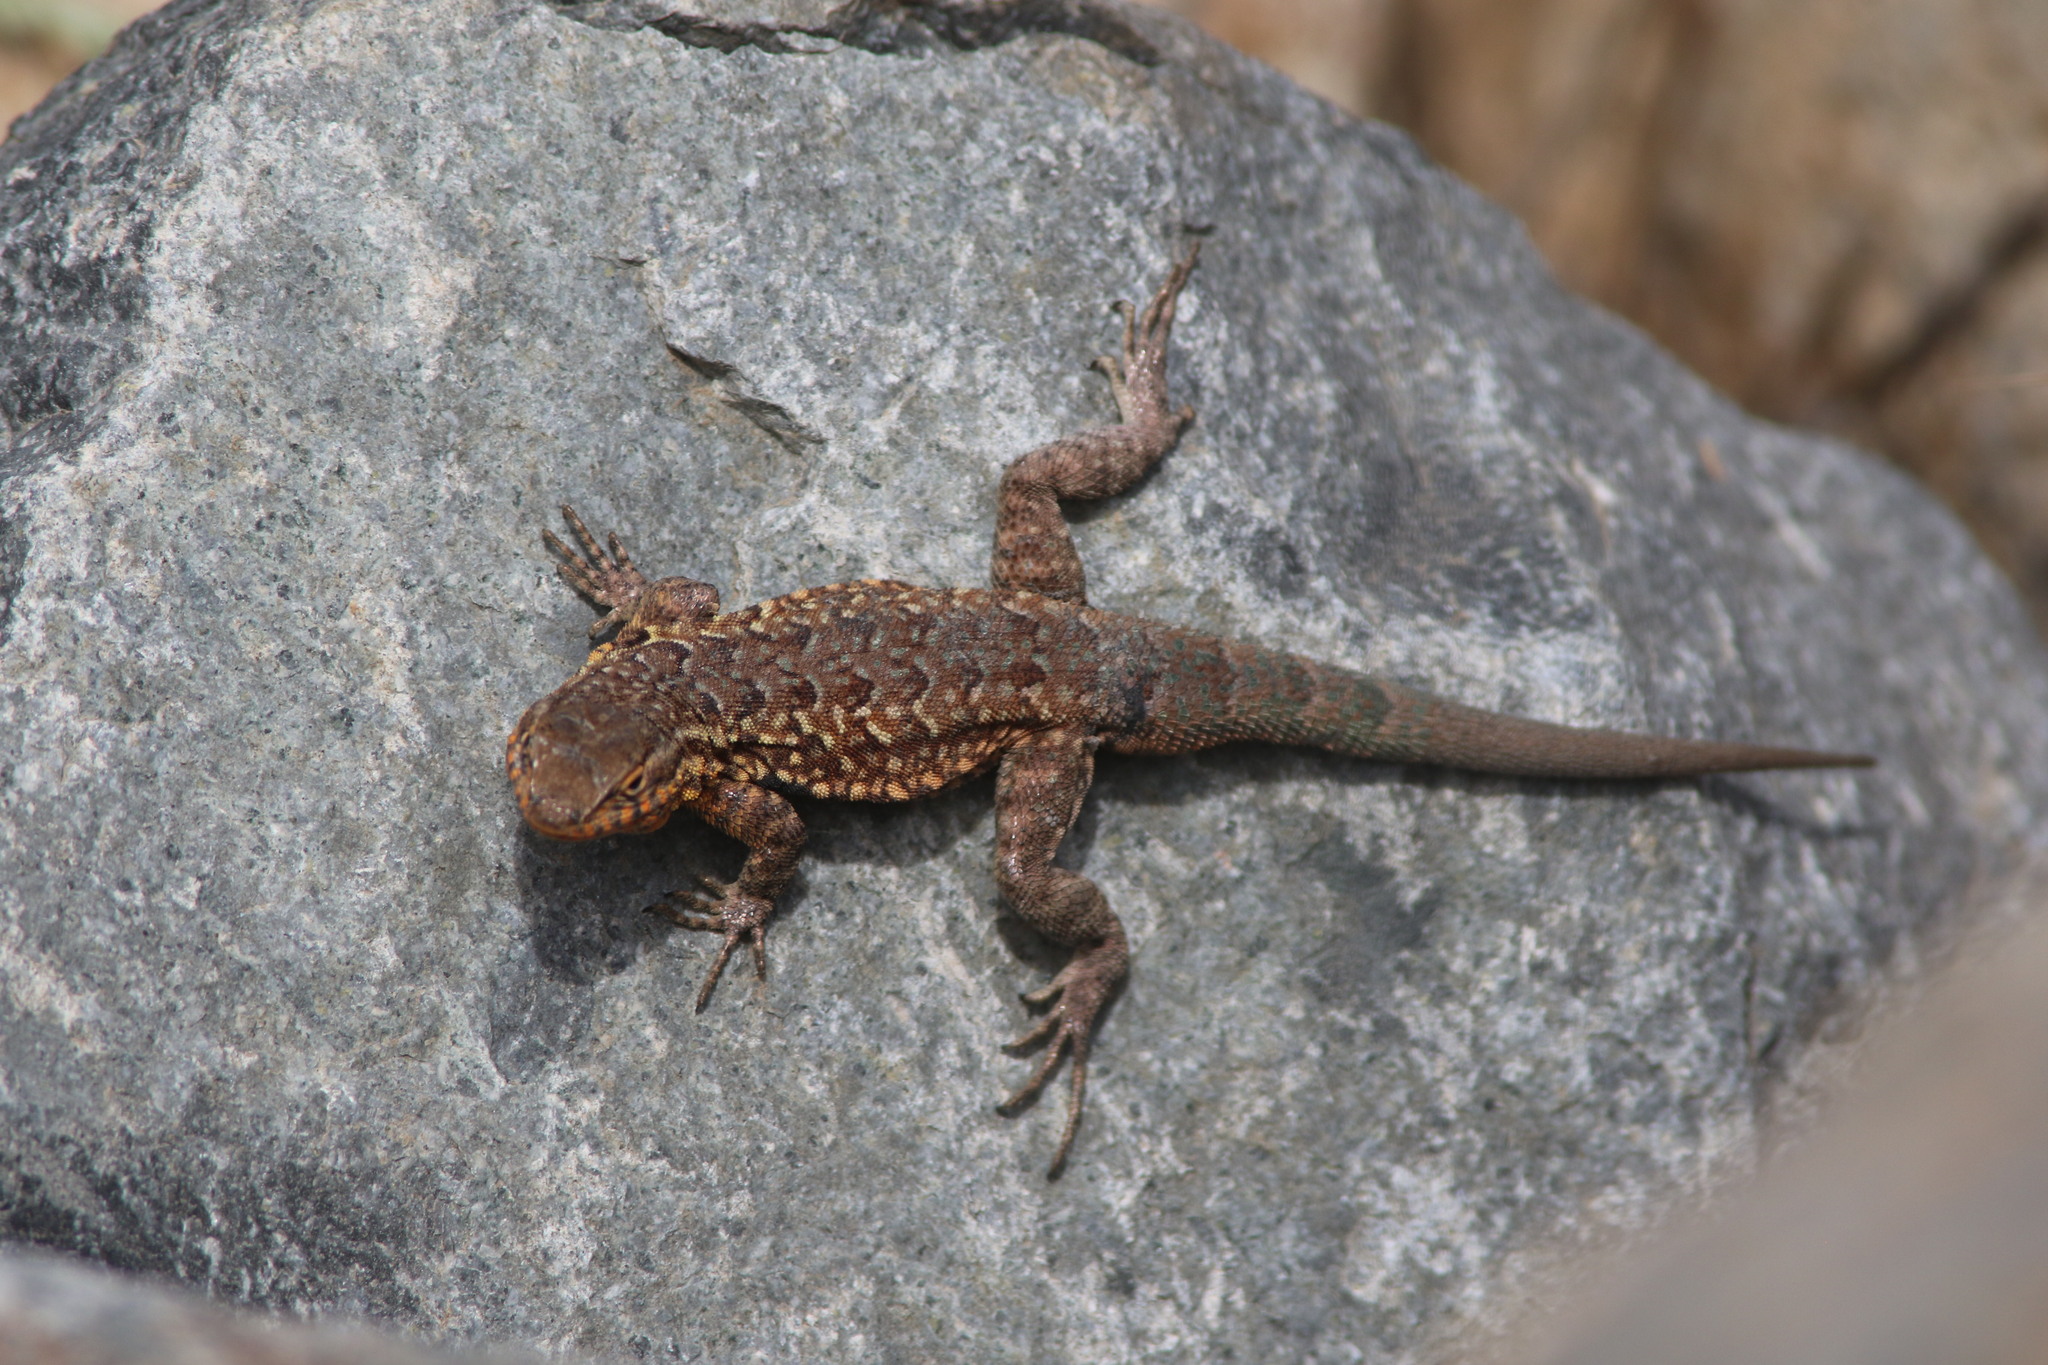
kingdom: Animalia
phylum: Chordata
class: Squamata
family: Phrynosomatidae
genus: Uta
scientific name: Uta stansburiana
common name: Side-blotched lizard
